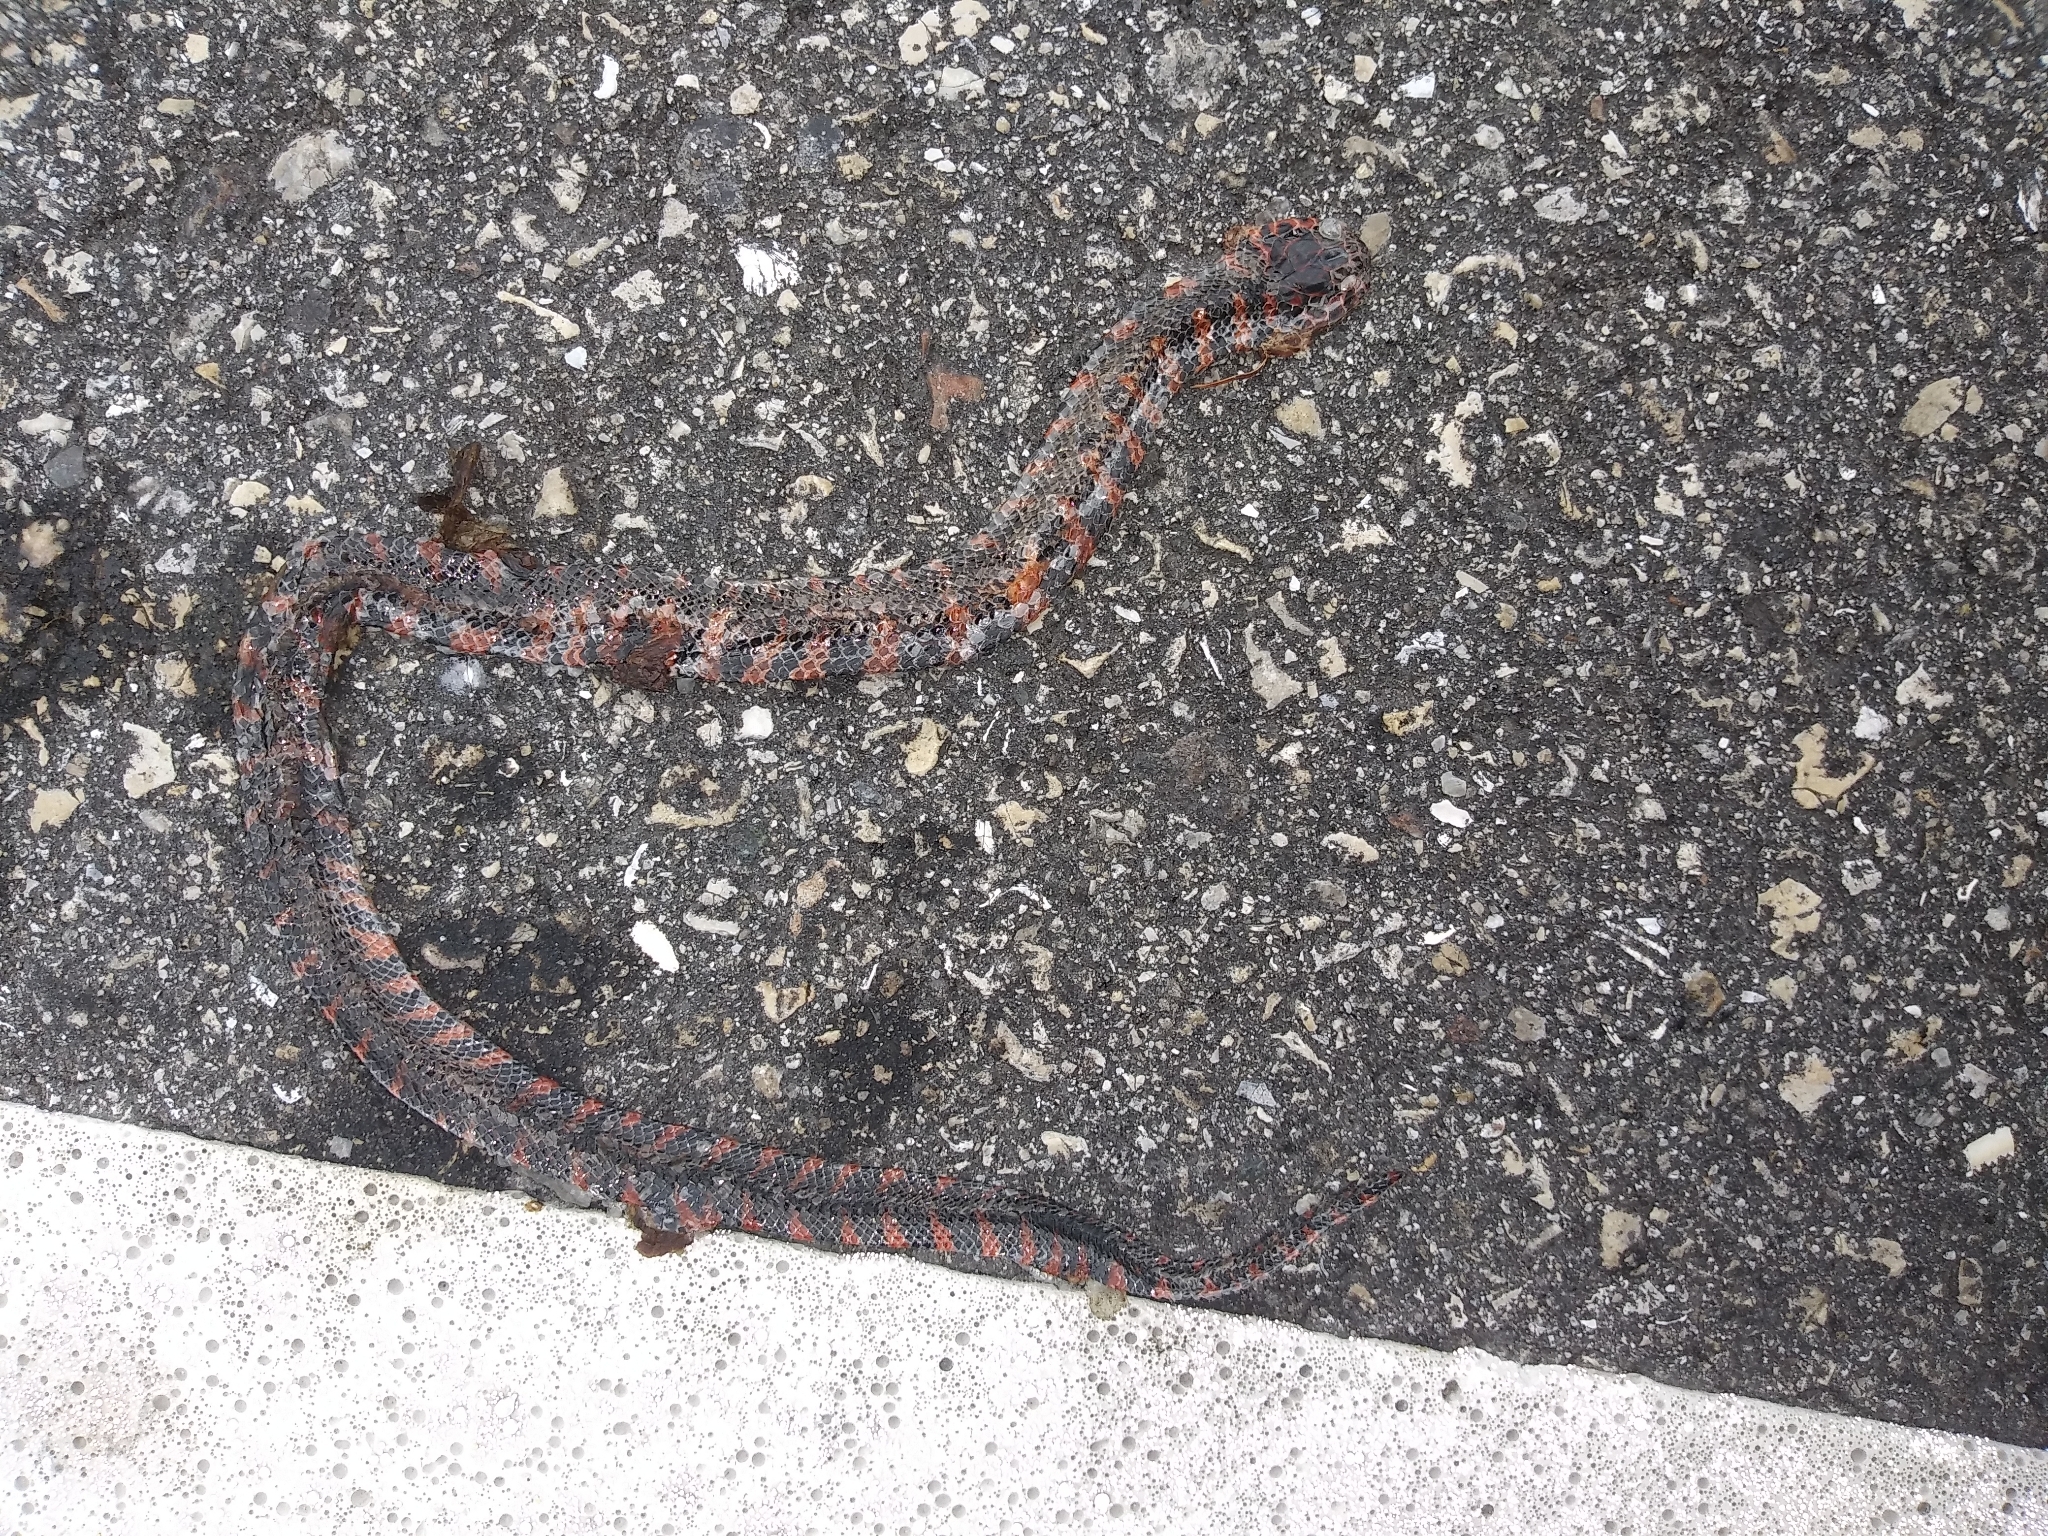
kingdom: Animalia
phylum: Chordata
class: Squamata
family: Colubridae
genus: Farancia
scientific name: Farancia abacura
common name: Mud snake
